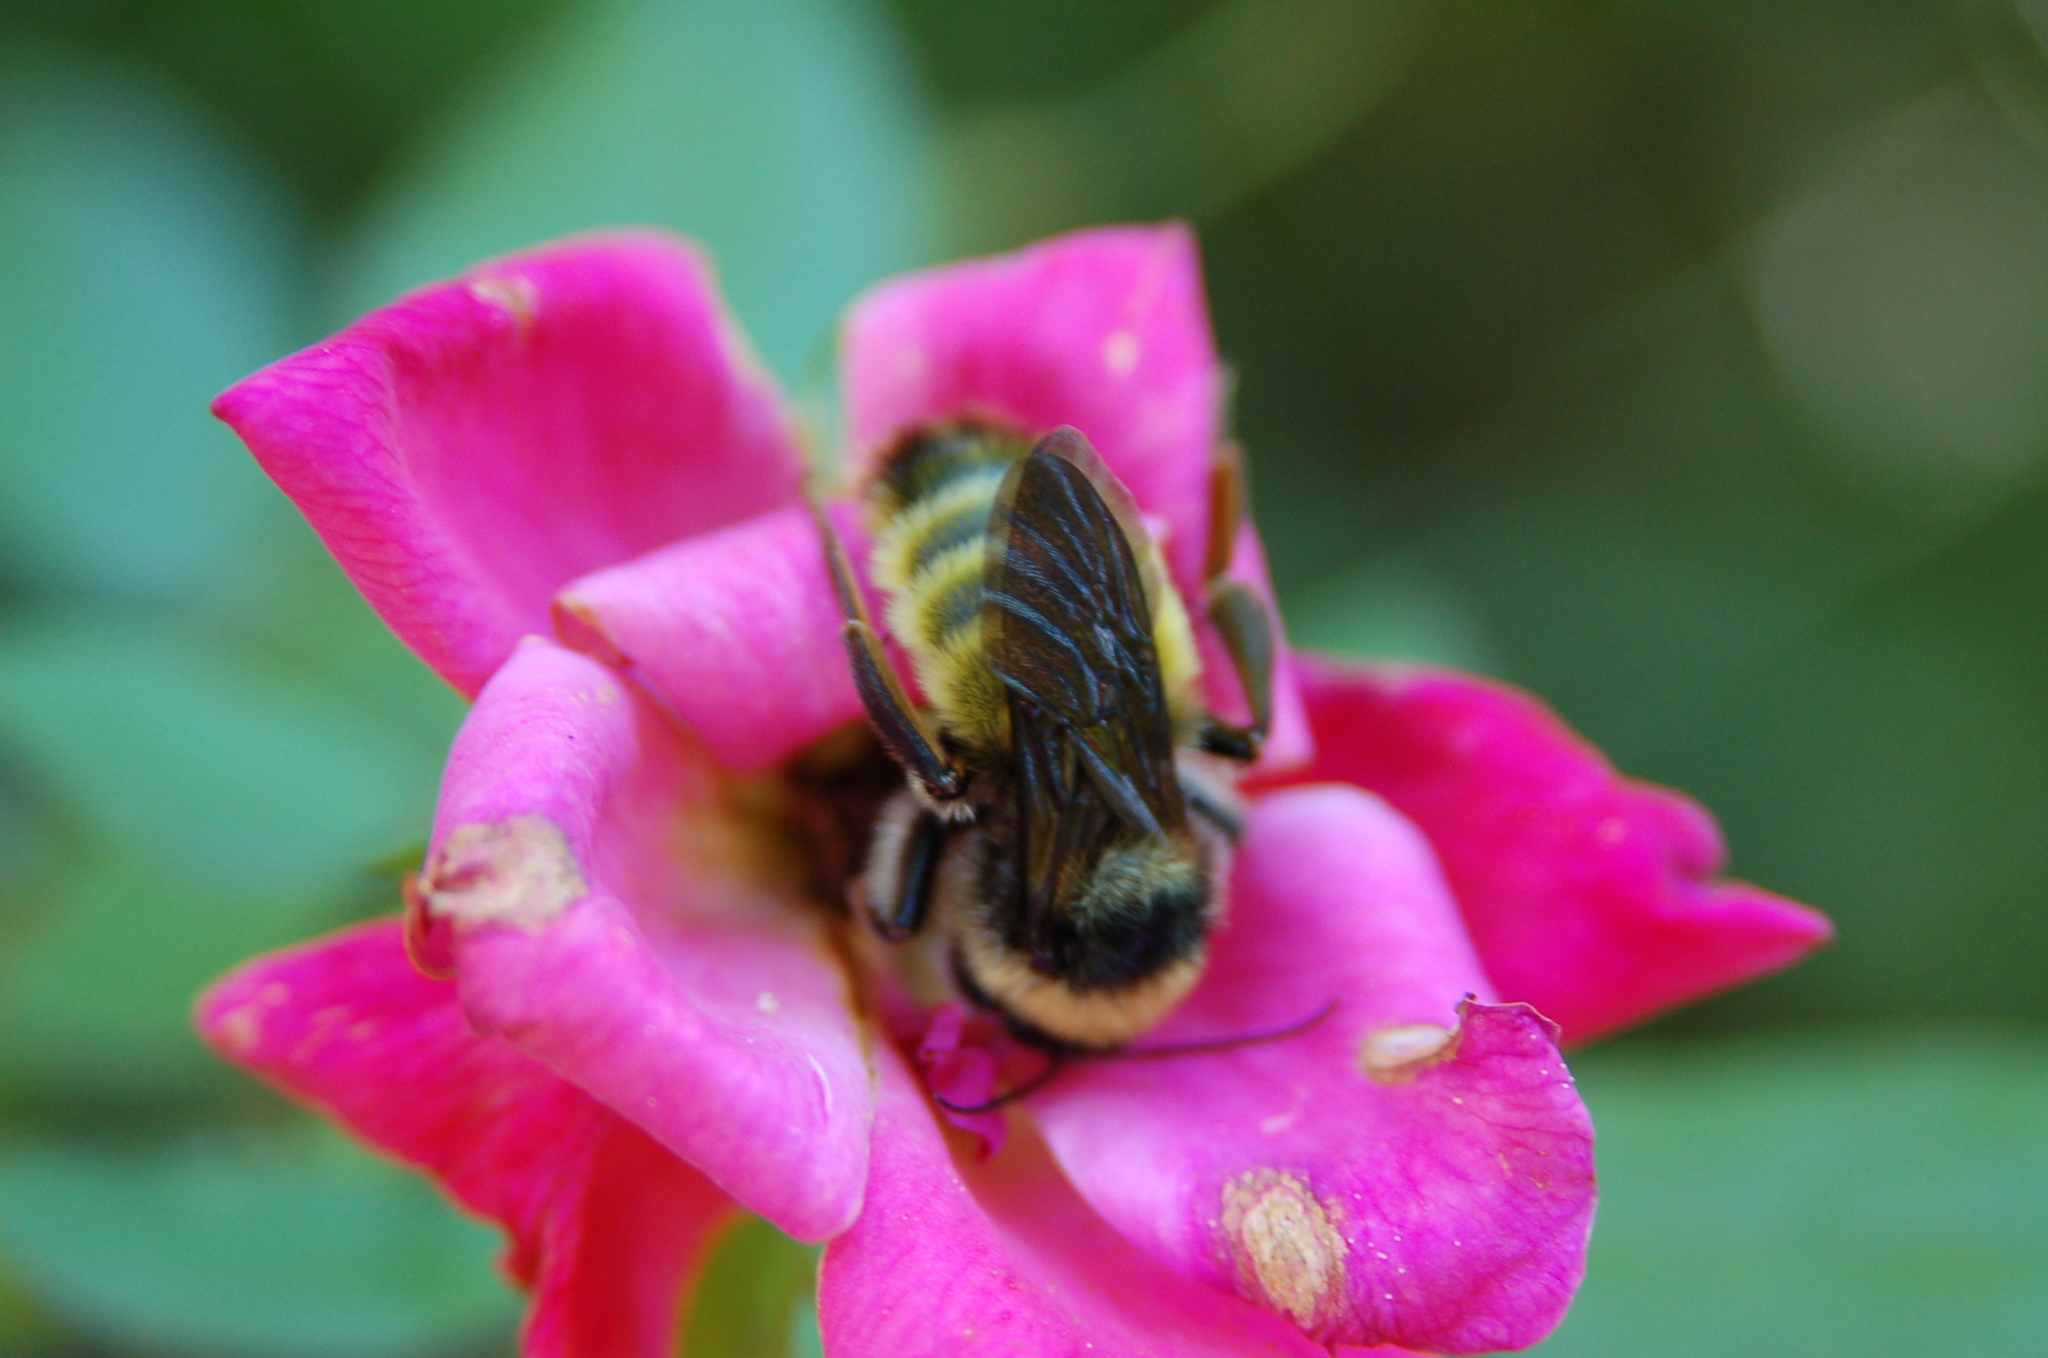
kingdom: Animalia
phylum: Arthropoda
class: Insecta
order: Hymenoptera
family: Apidae
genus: Bombus
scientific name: Bombus pensylvanicus
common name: Bumble bee
